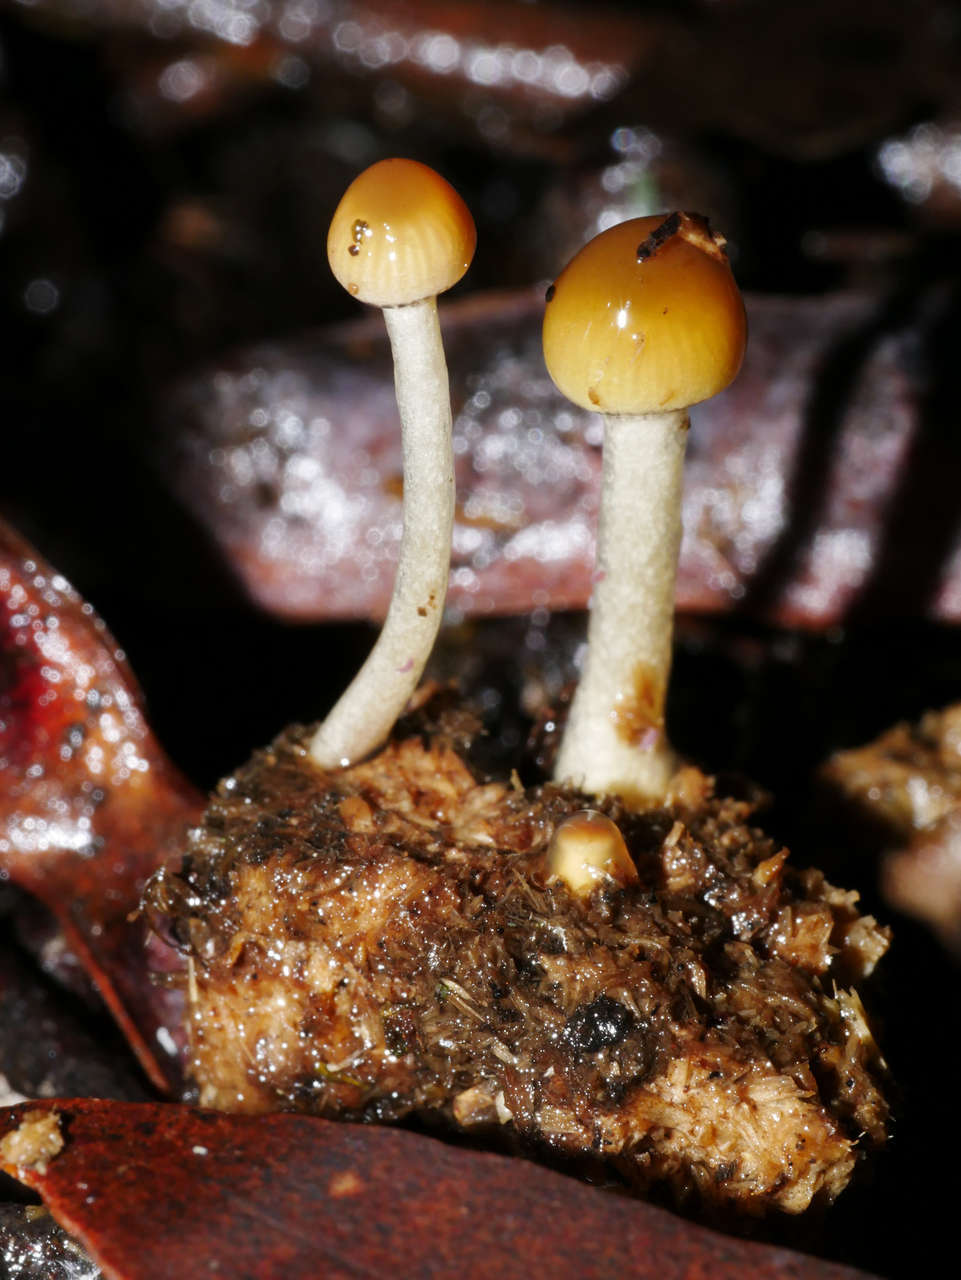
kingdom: Fungi
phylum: Basidiomycota
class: Agaricomycetes
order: Agaricales
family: Strophariaceae
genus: Protostropharia
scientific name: Protostropharia semiglobata
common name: Dung roundhead
